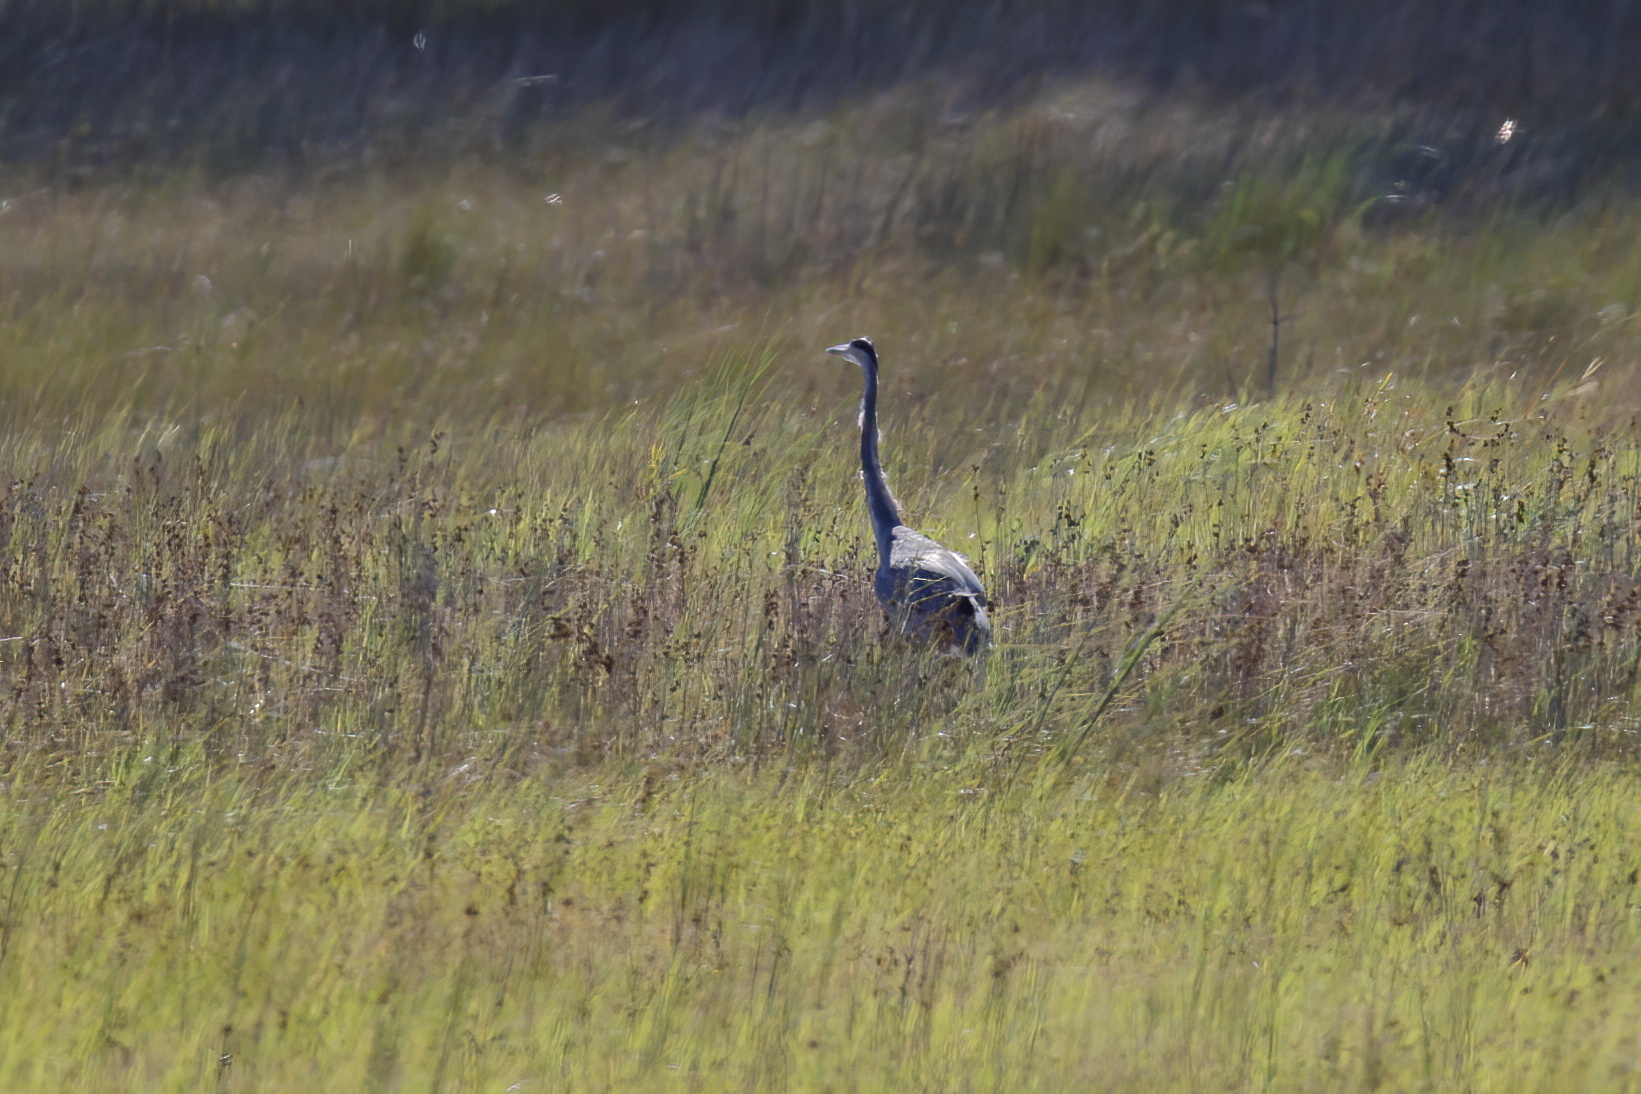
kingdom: Animalia
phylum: Chordata
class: Aves
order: Pelecaniformes
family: Ardeidae
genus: Ardea
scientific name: Ardea herodias
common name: Great blue heron
